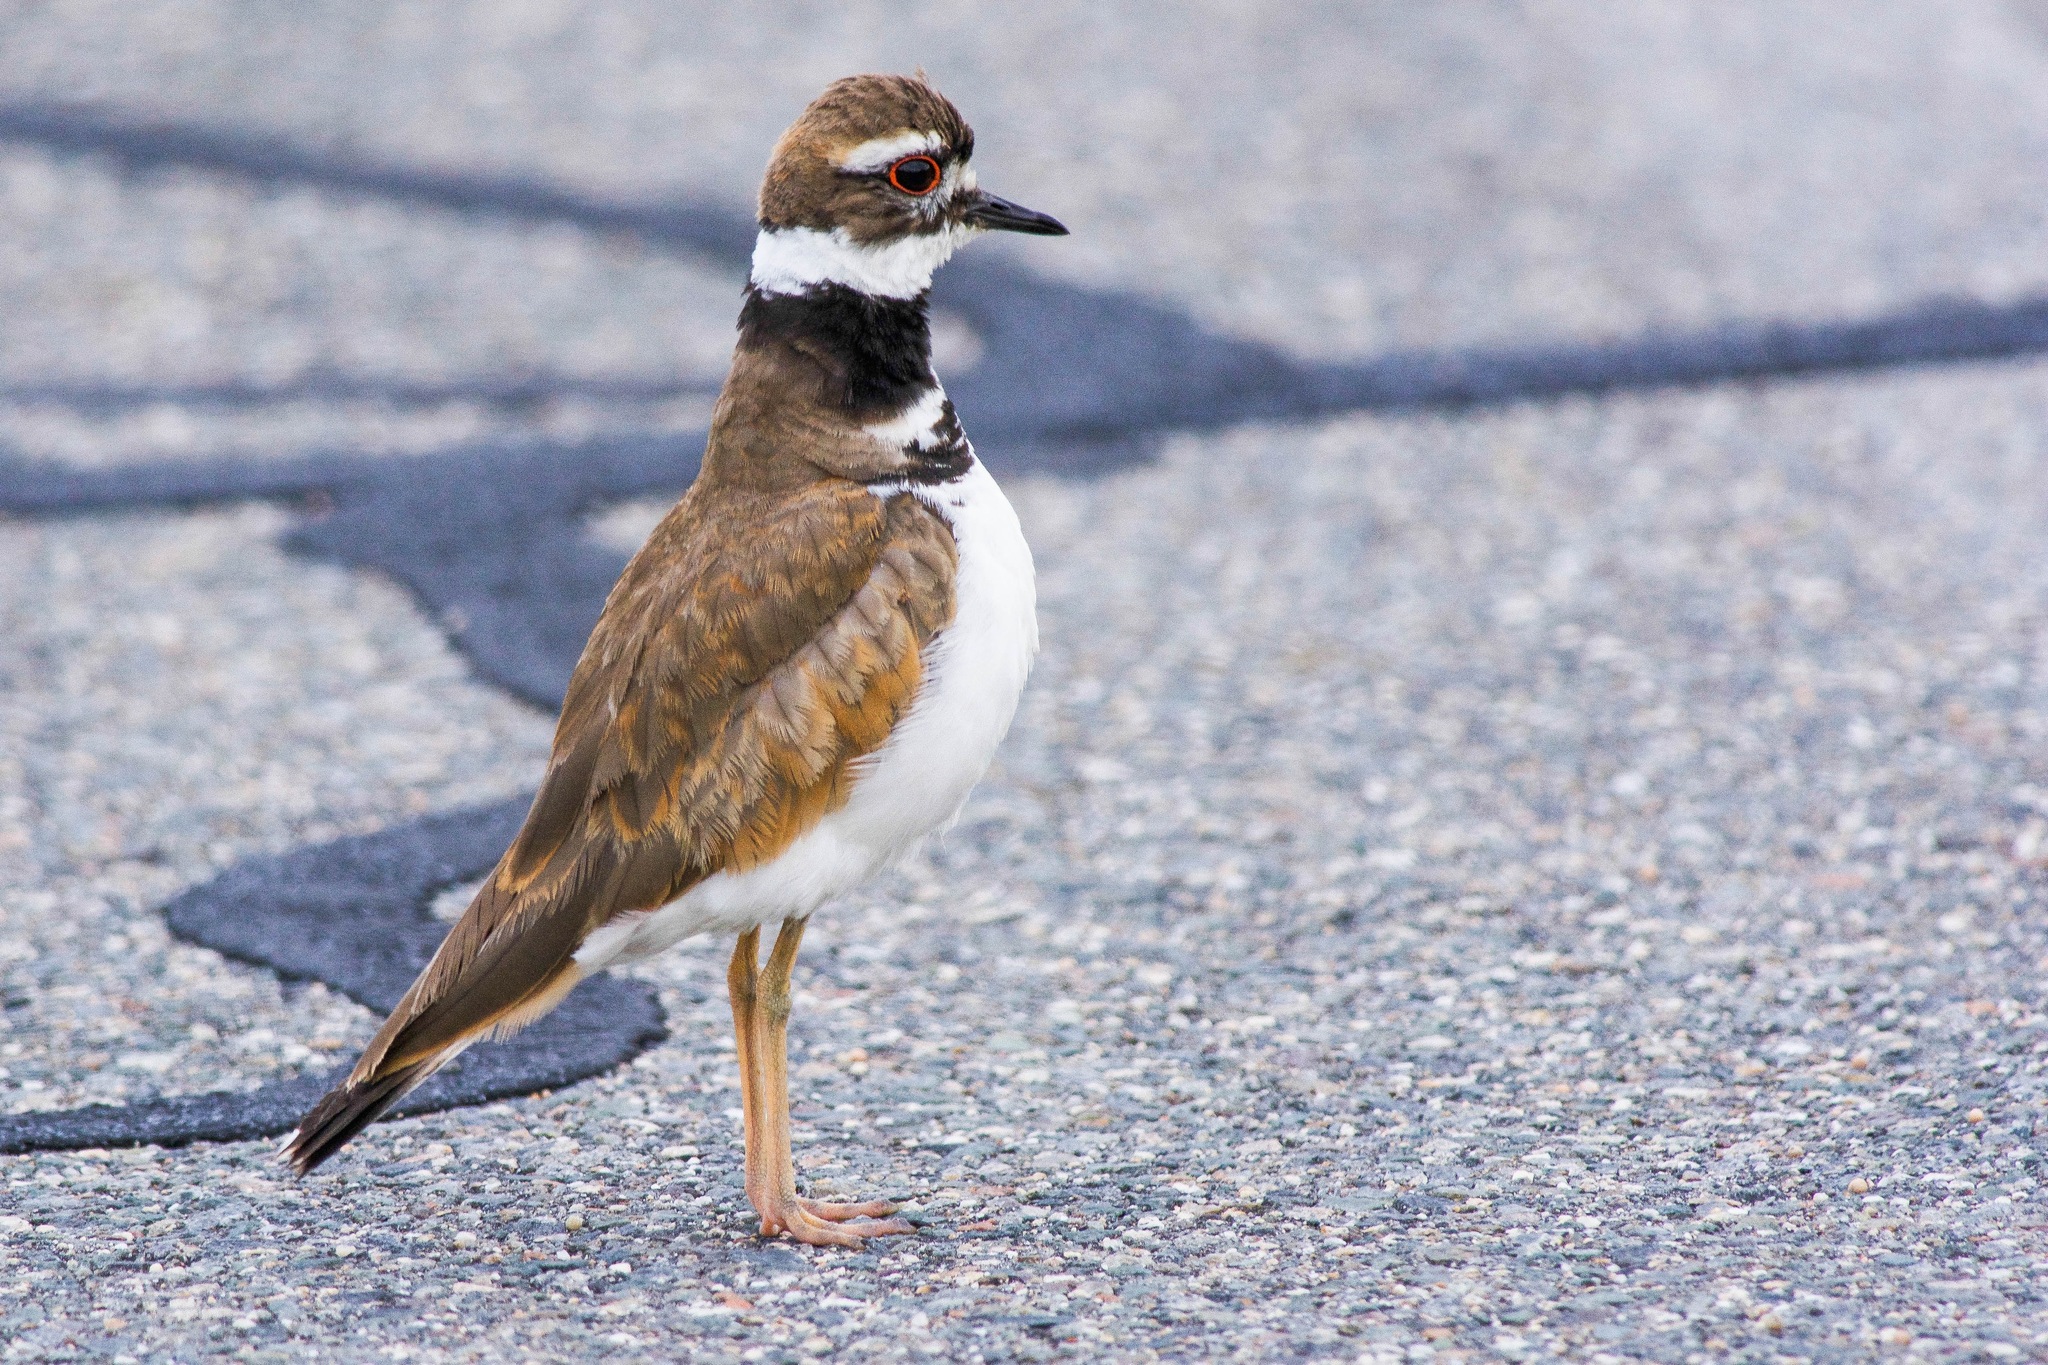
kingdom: Animalia
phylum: Chordata
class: Aves
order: Charadriiformes
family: Charadriidae
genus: Charadrius
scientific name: Charadrius vociferus
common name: Killdeer
